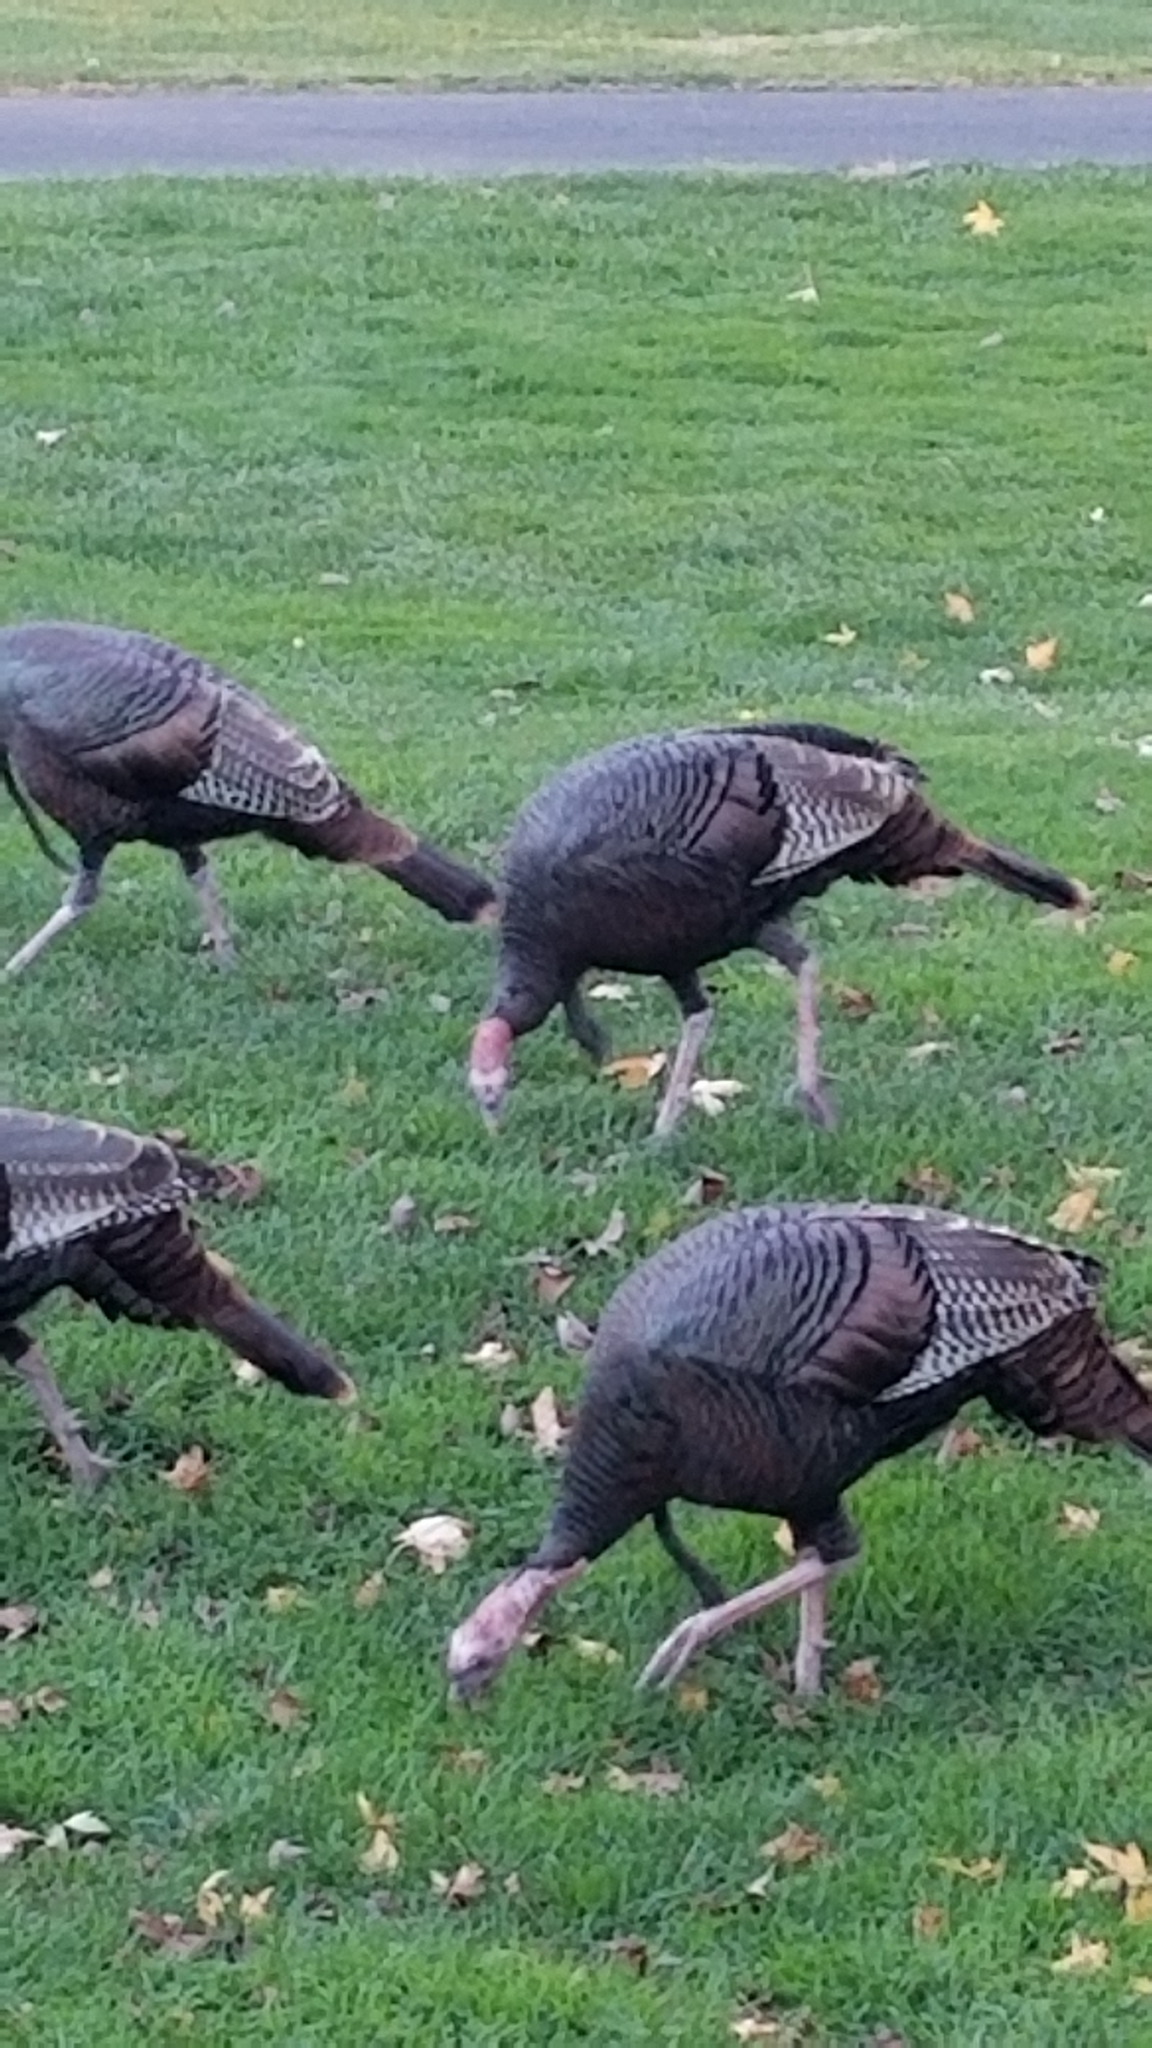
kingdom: Animalia
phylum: Chordata
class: Aves
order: Galliformes
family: Phasianidae
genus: Meleagris
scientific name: Meleagris gallopavo
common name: Wild turkey
